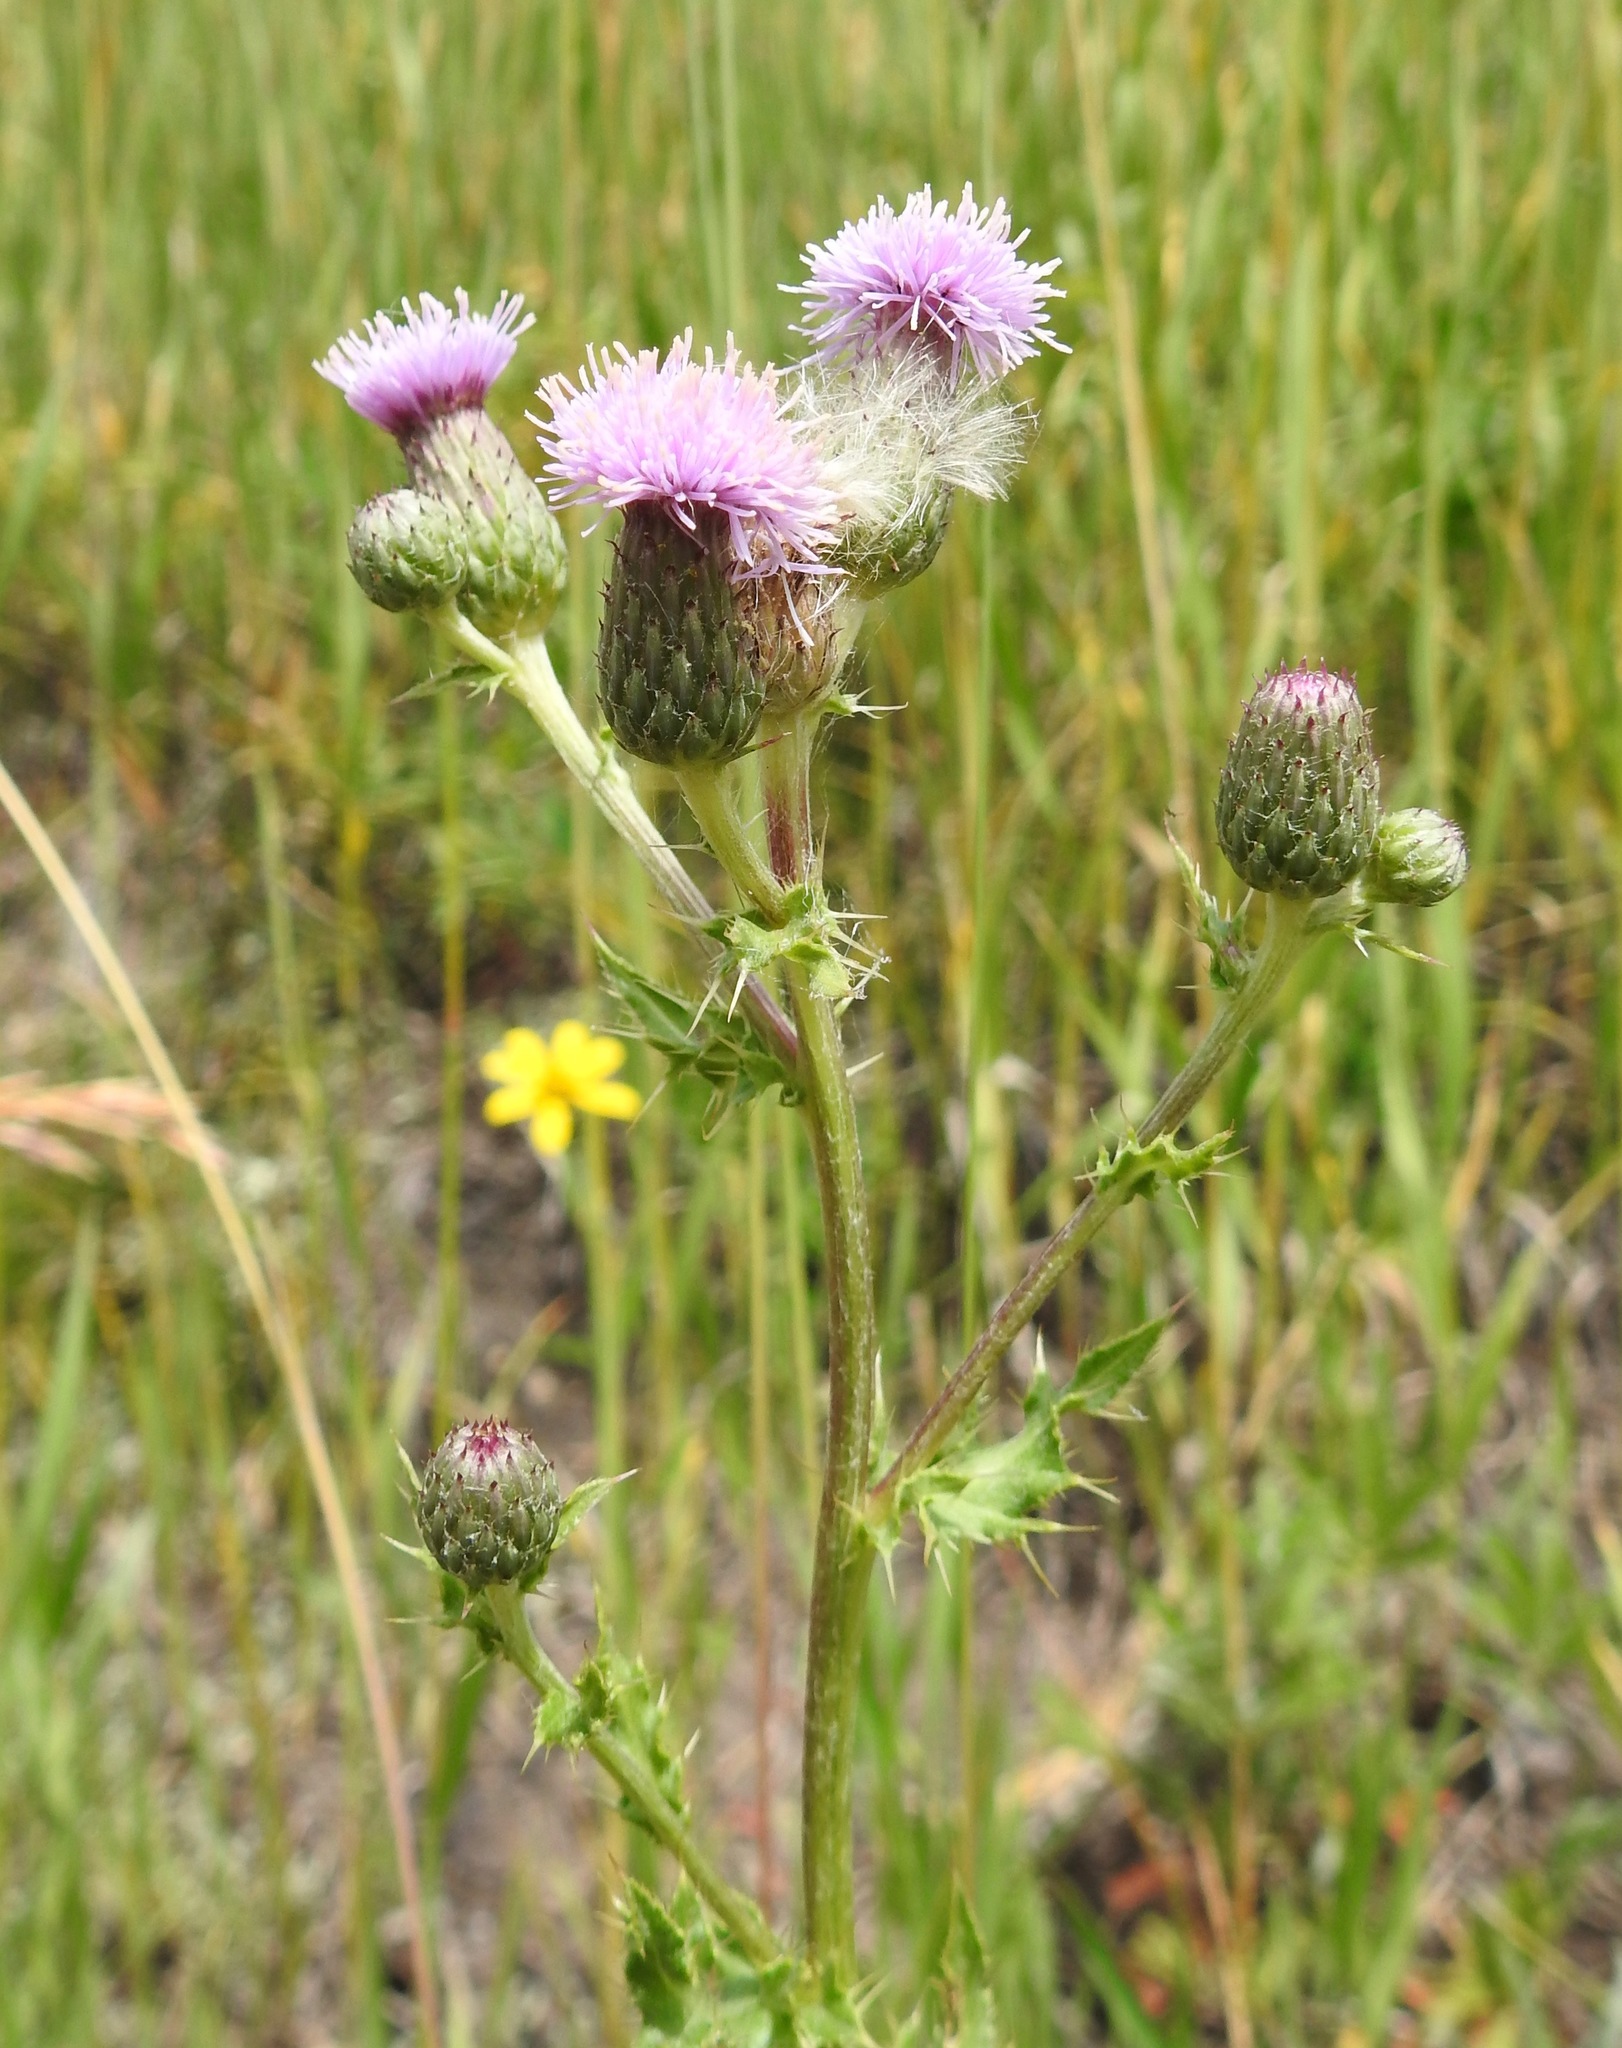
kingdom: Plantae
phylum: Tracheophyta
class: Magnoliopsida
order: Asterales
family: Asteraceae
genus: Carduus
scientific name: Carduus nutans
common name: Musk thistle
